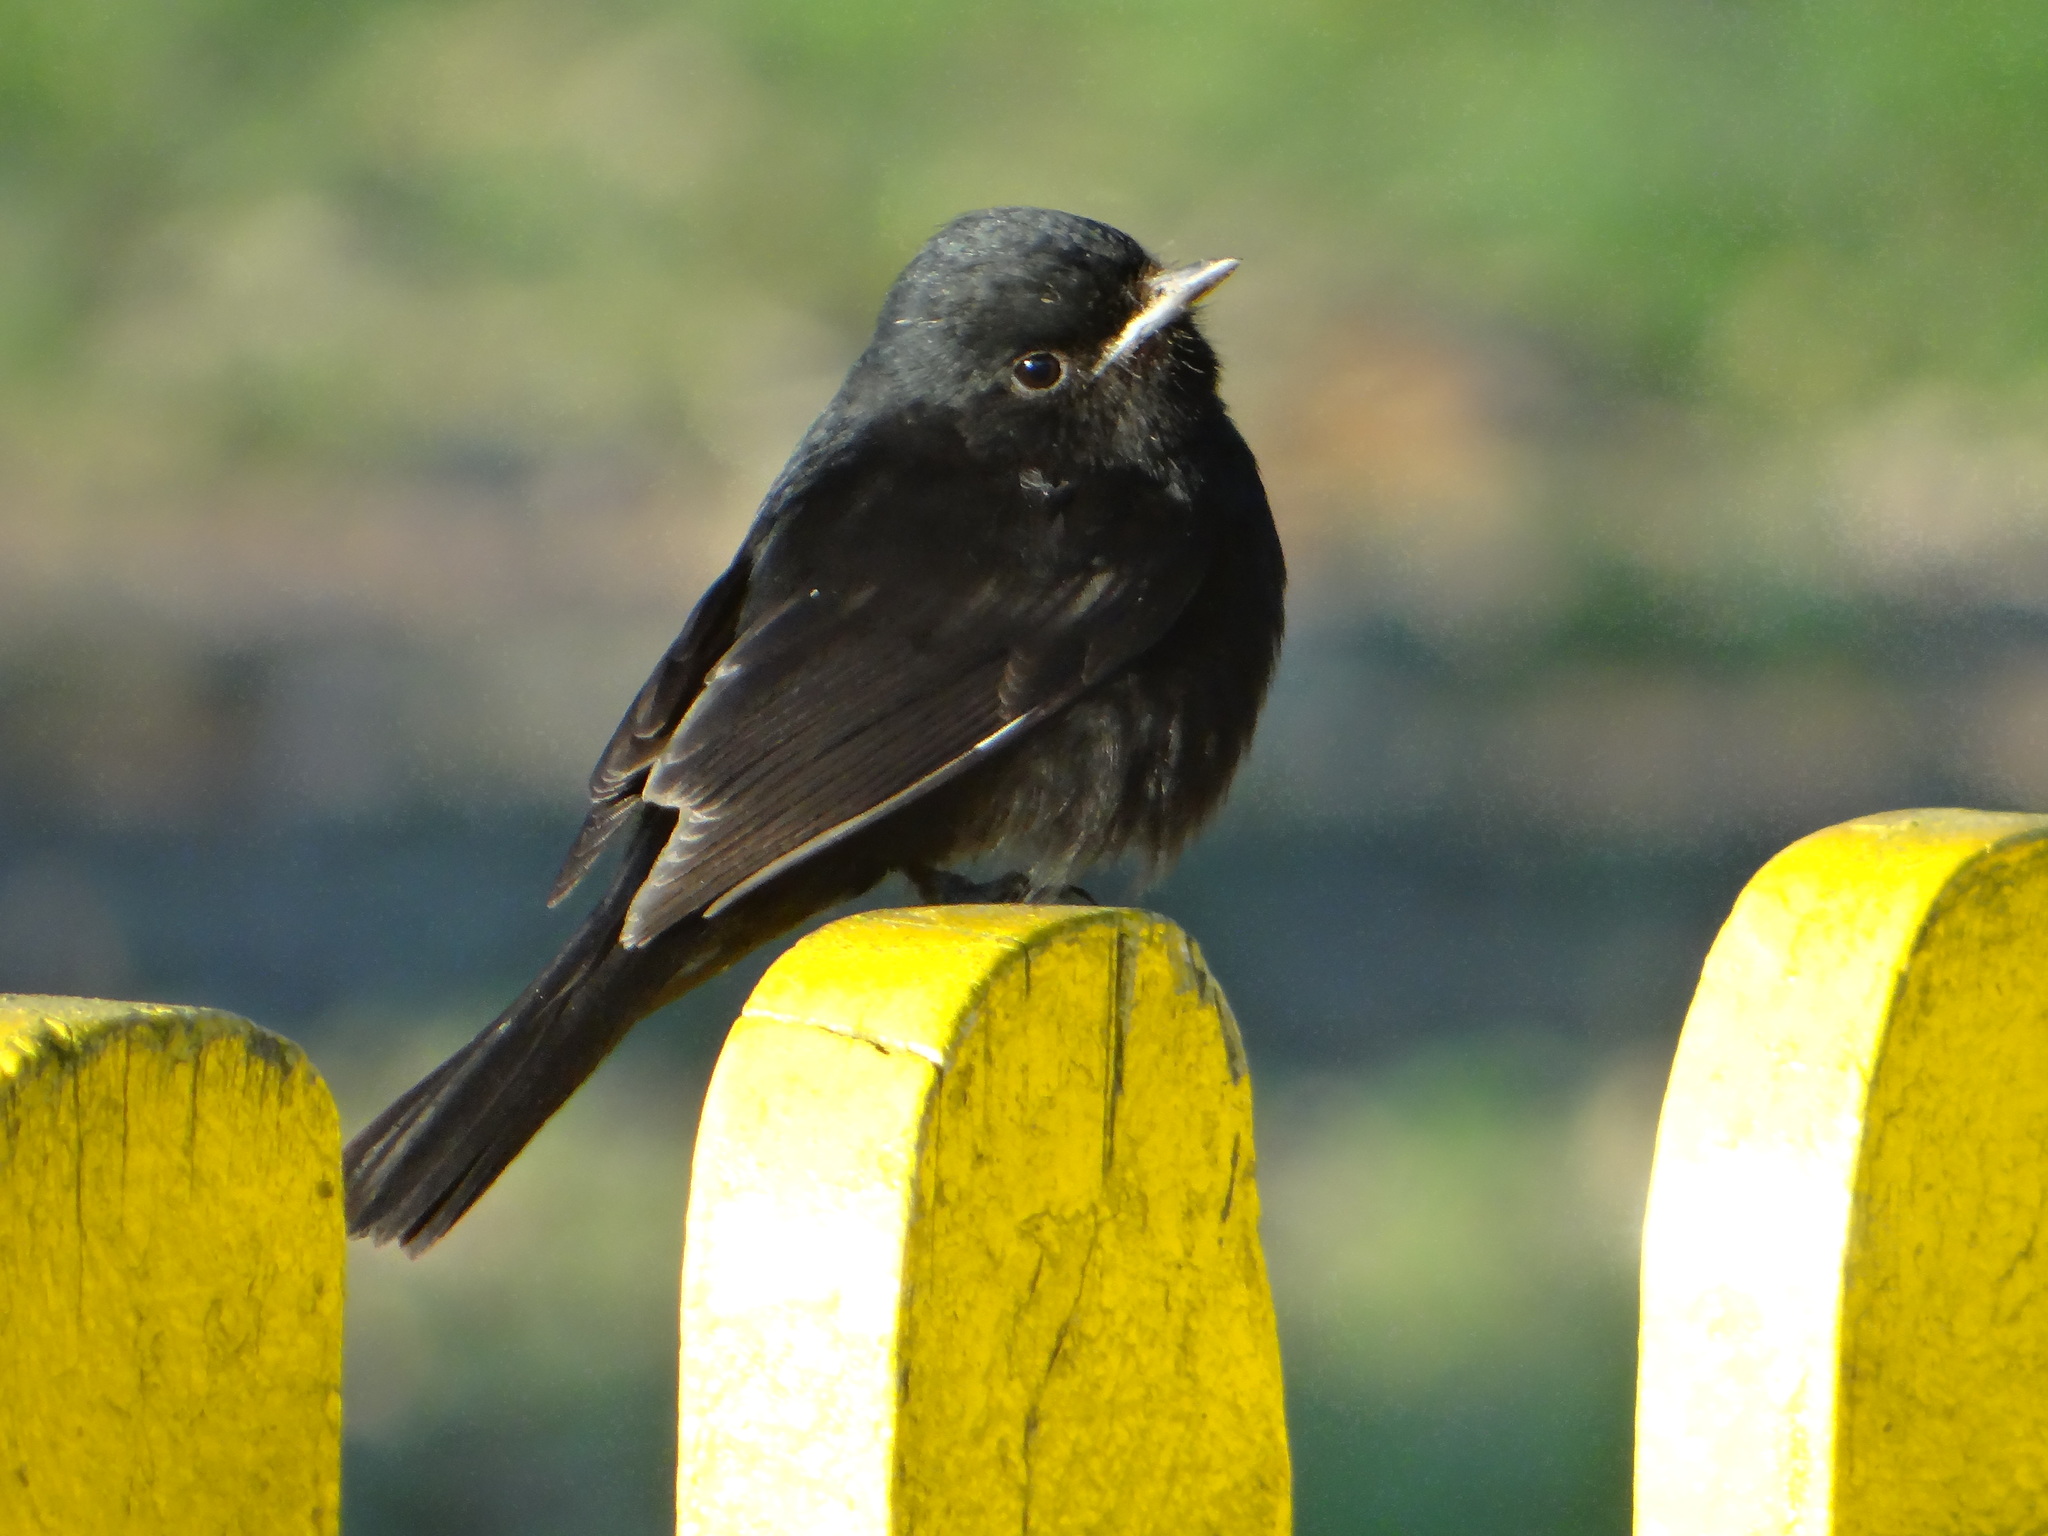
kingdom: Animalia
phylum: Chordata
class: Aves
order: Passeriformes
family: Tyrannidae
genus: Knipolegus
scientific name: Knipolegus hudsoni
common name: Hudson's black tyrant
